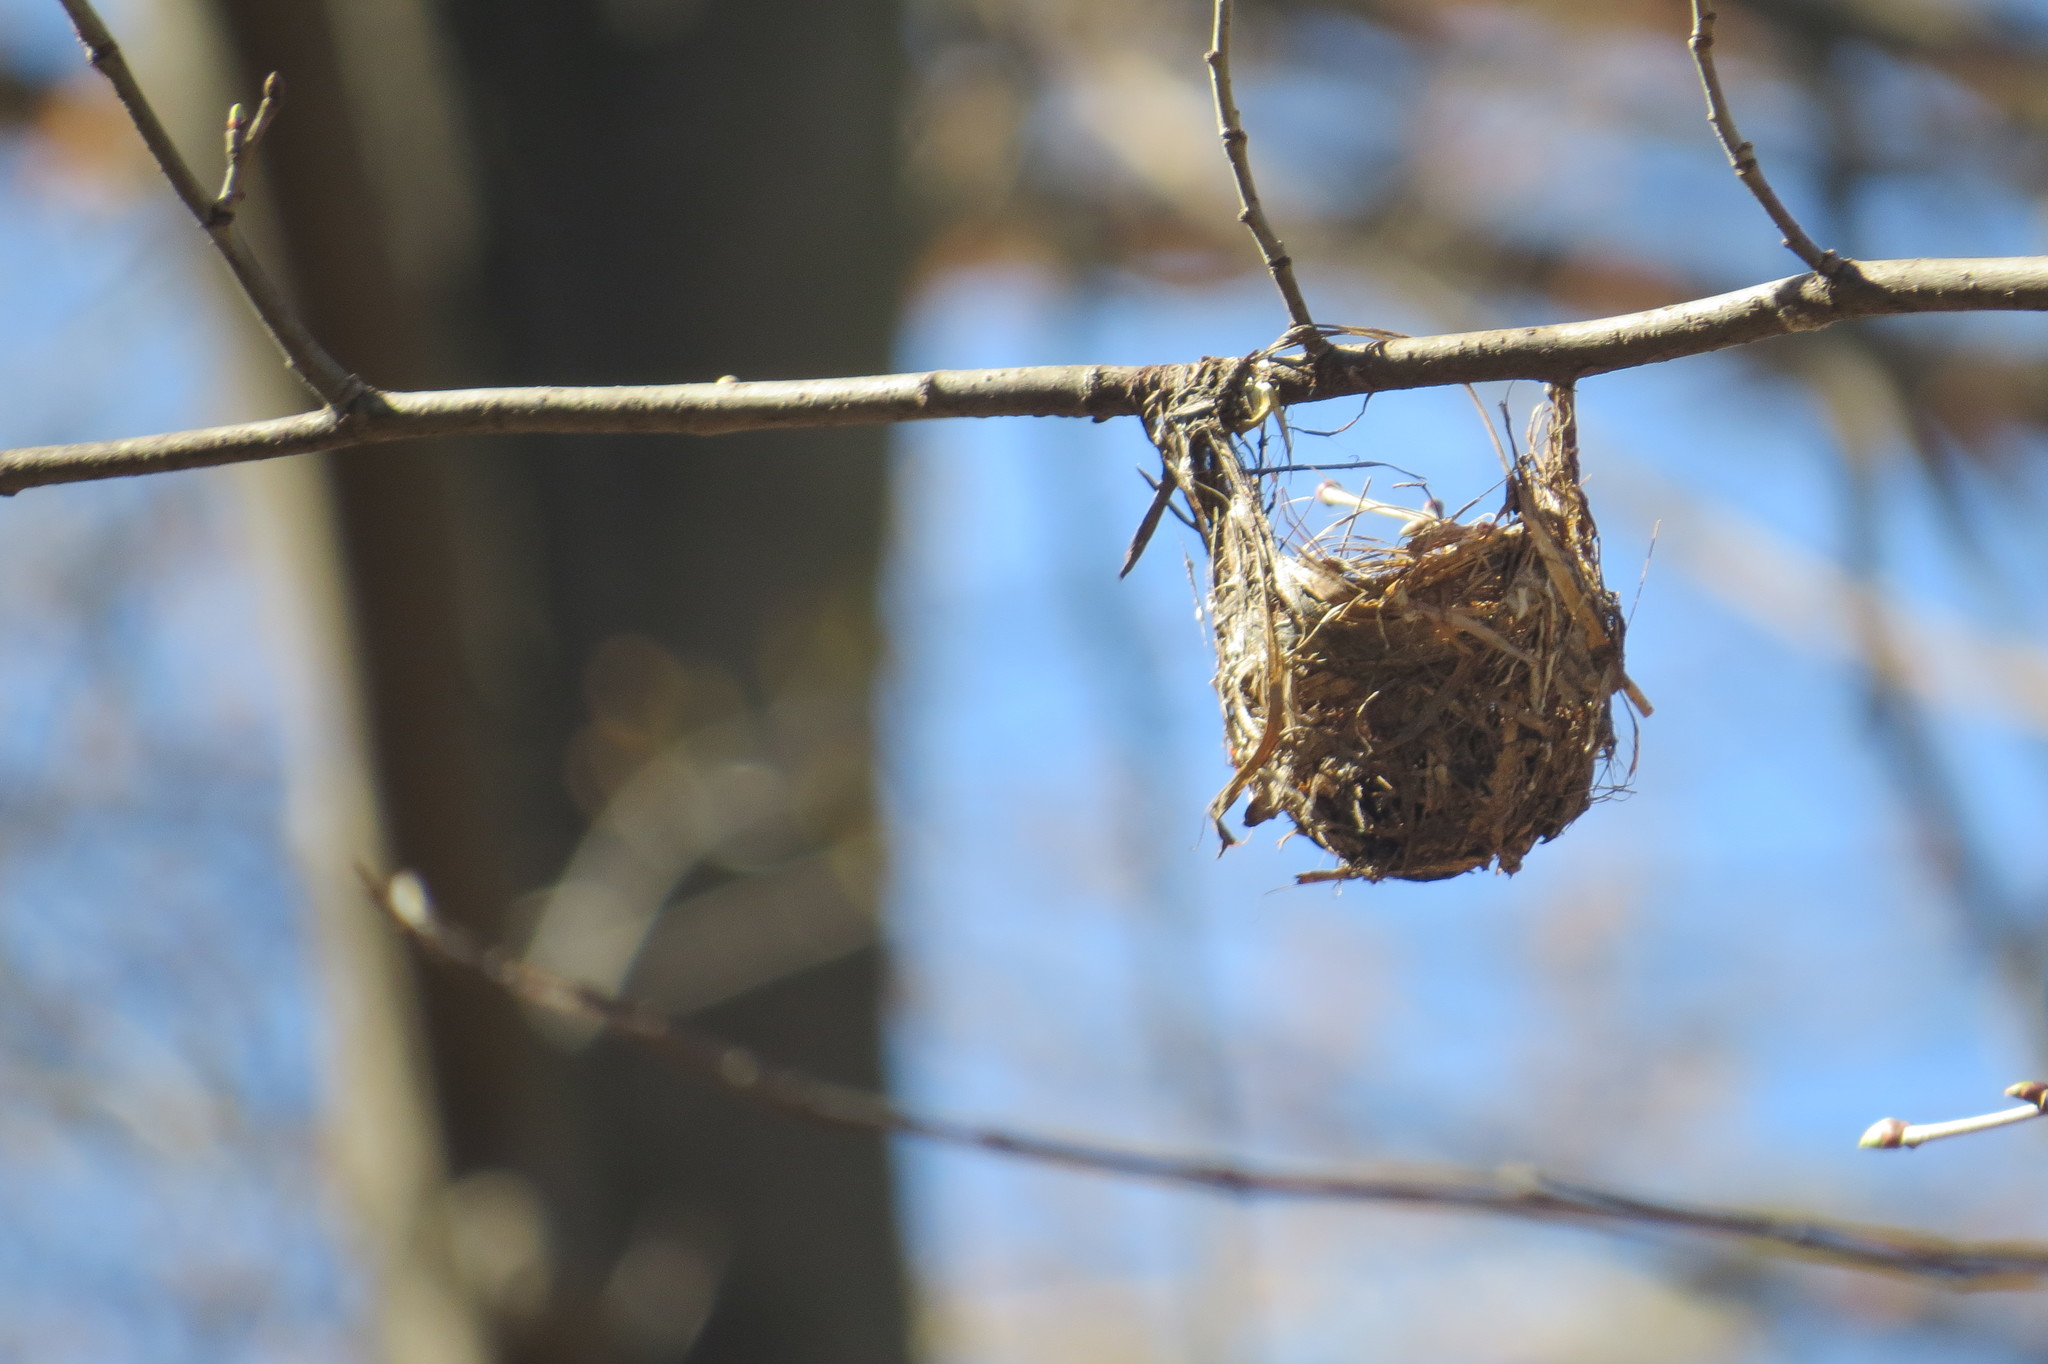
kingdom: Animalia
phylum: Chordata
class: Aves
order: Passeriformes
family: Vireonidae
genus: Vireo
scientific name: Vireo
